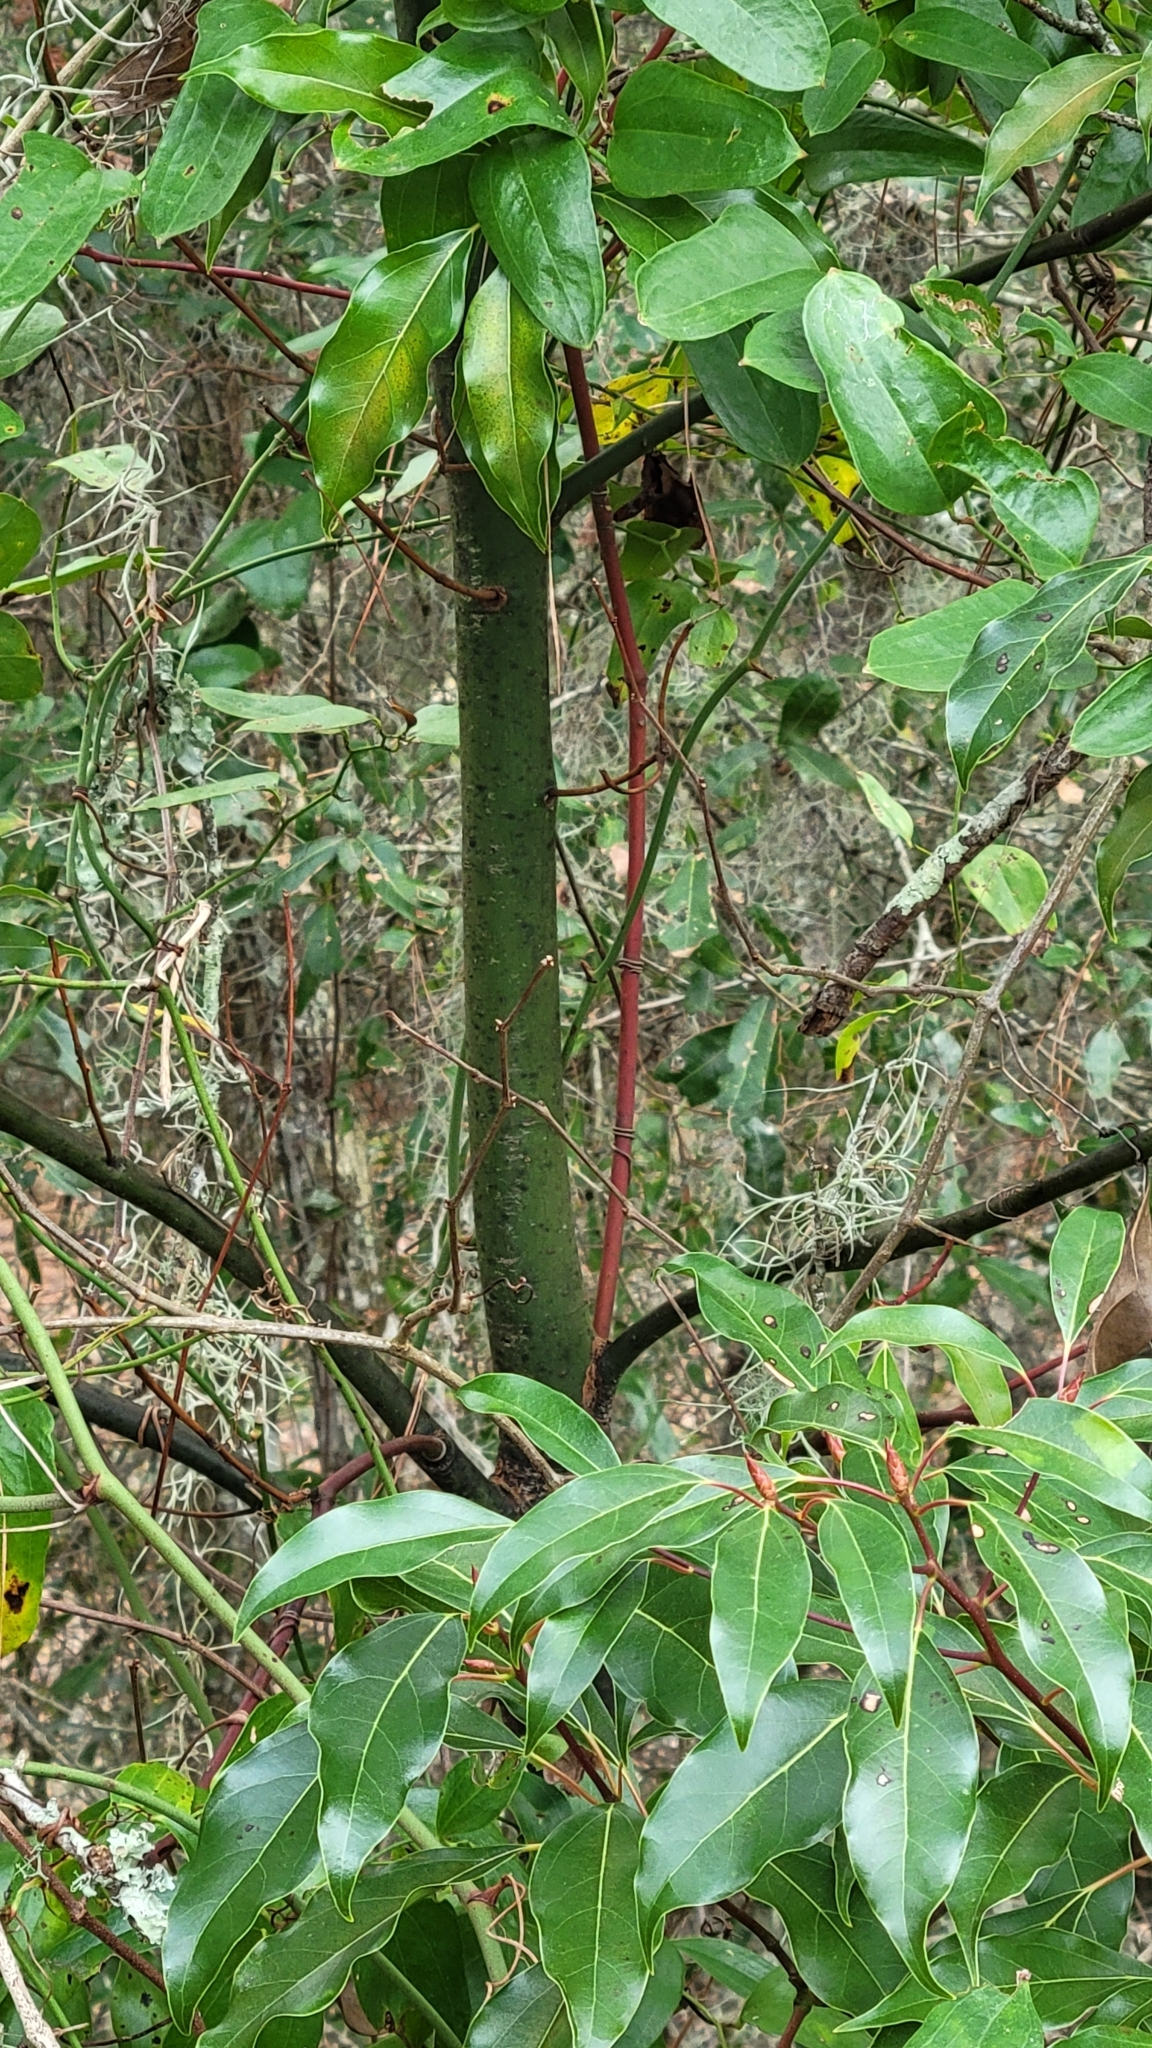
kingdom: Plantae
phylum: Tracheophyta
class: Magnoliopsida
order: Laurales
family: Lauraceae
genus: Cinnamomum
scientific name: Cinnamomum camphora
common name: Camphortree
